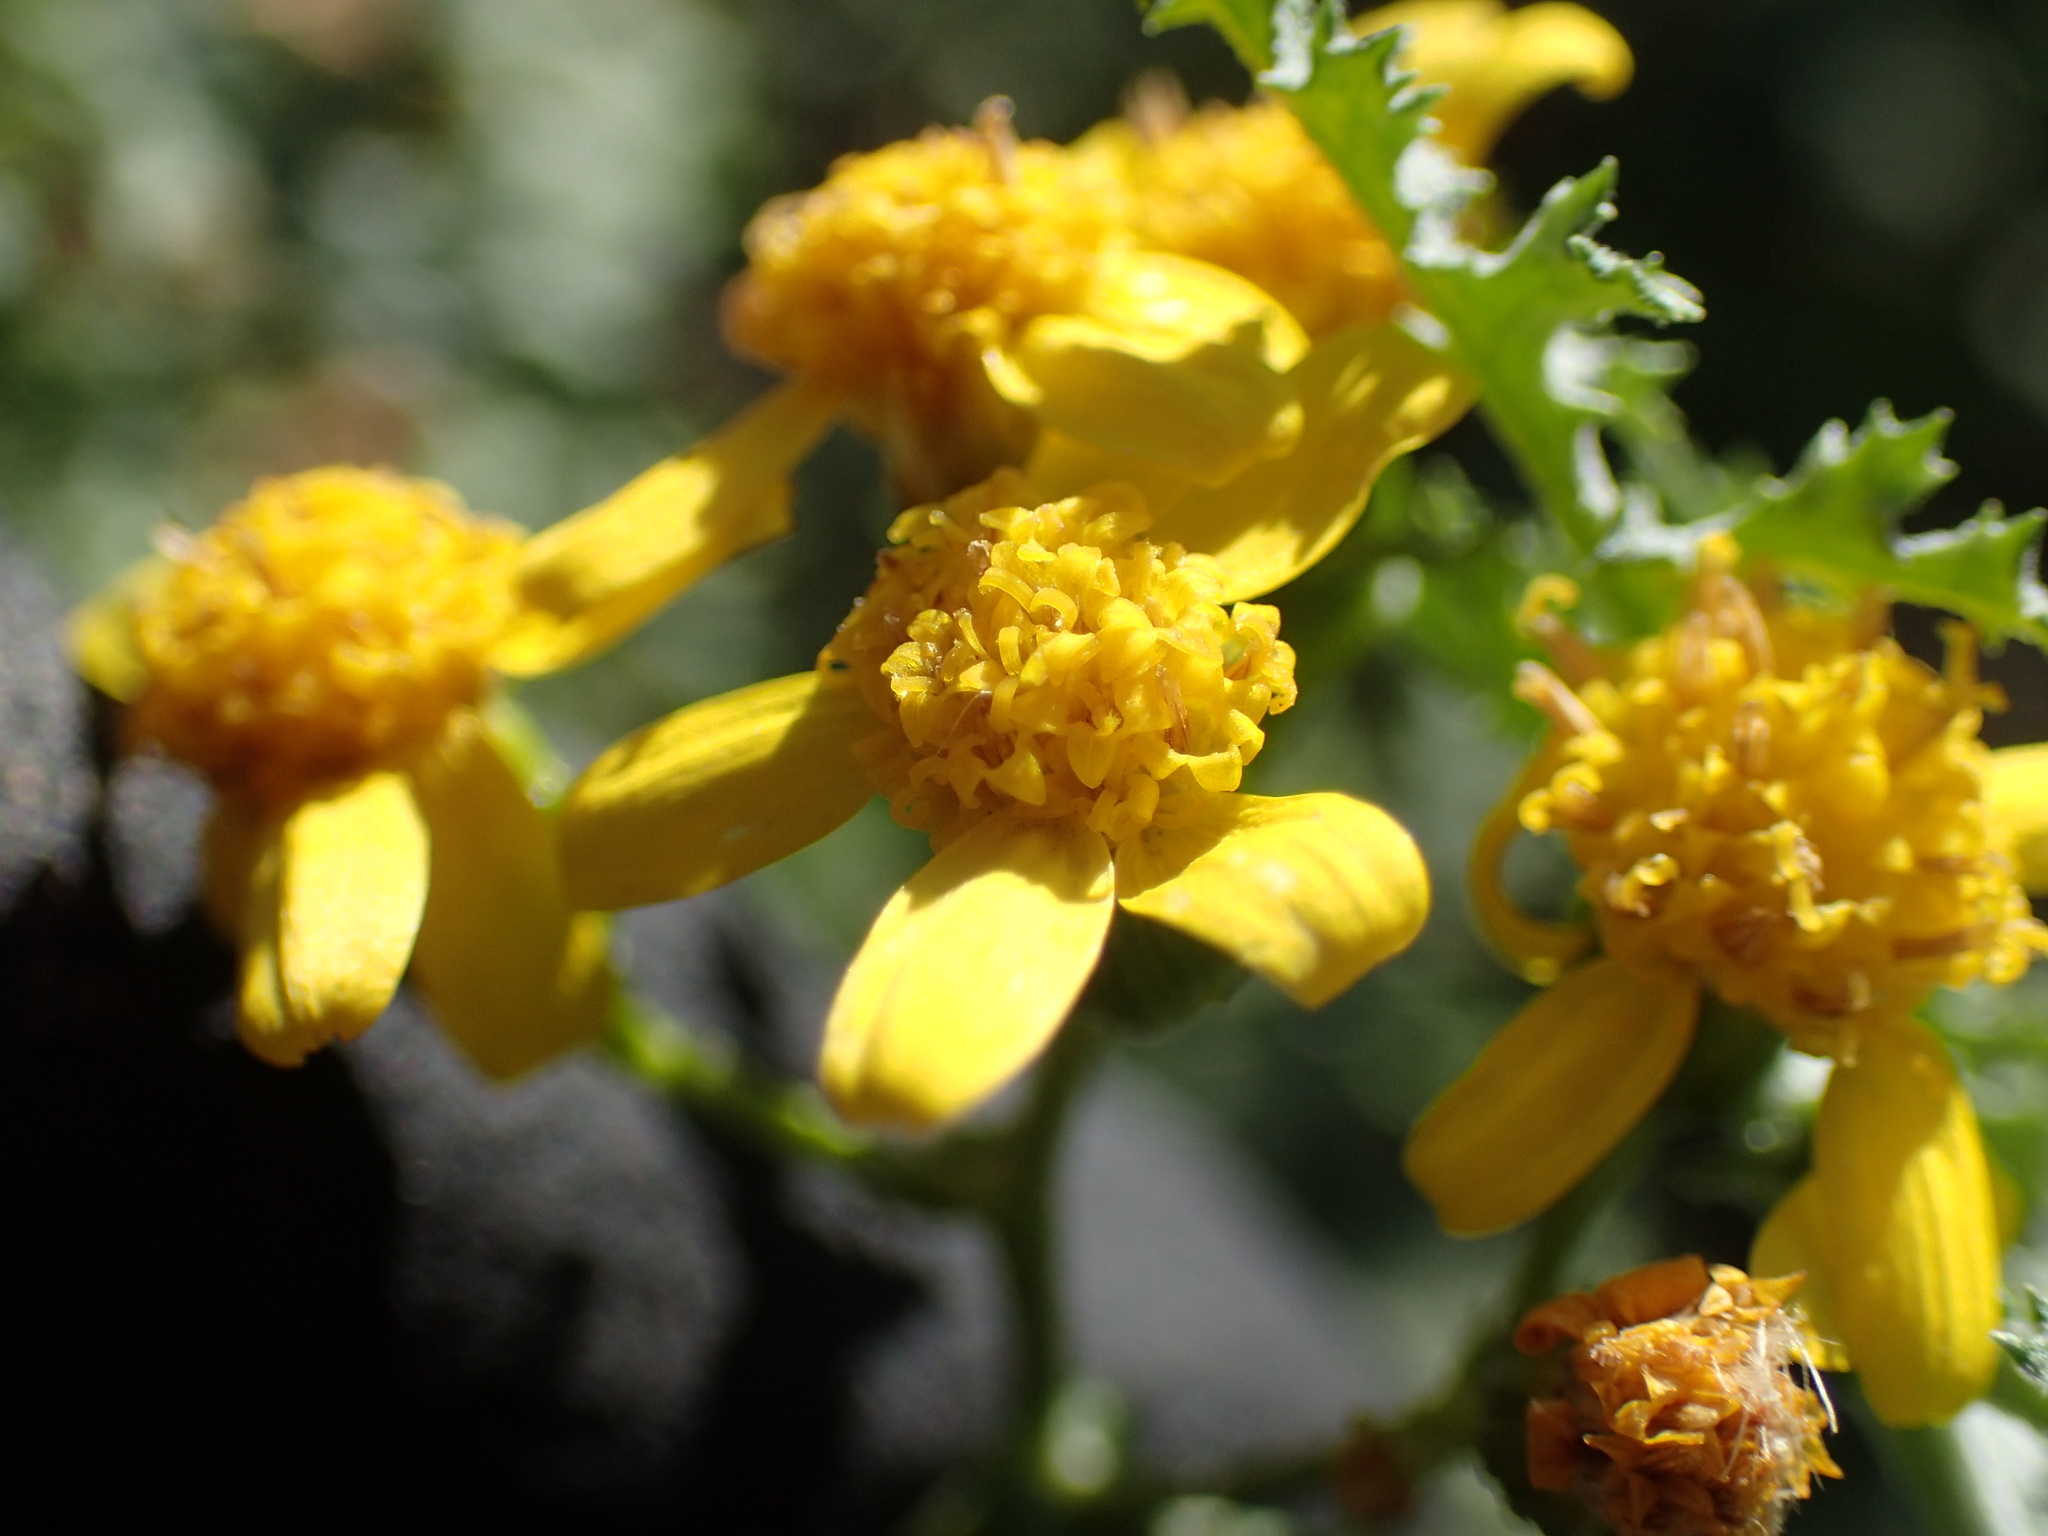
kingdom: Plantae
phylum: Tracheophyta
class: Magnoliopsida
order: Asterales
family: Asteraceae
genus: Cineraria
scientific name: Cineraria lyratiformis
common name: Cineraria
